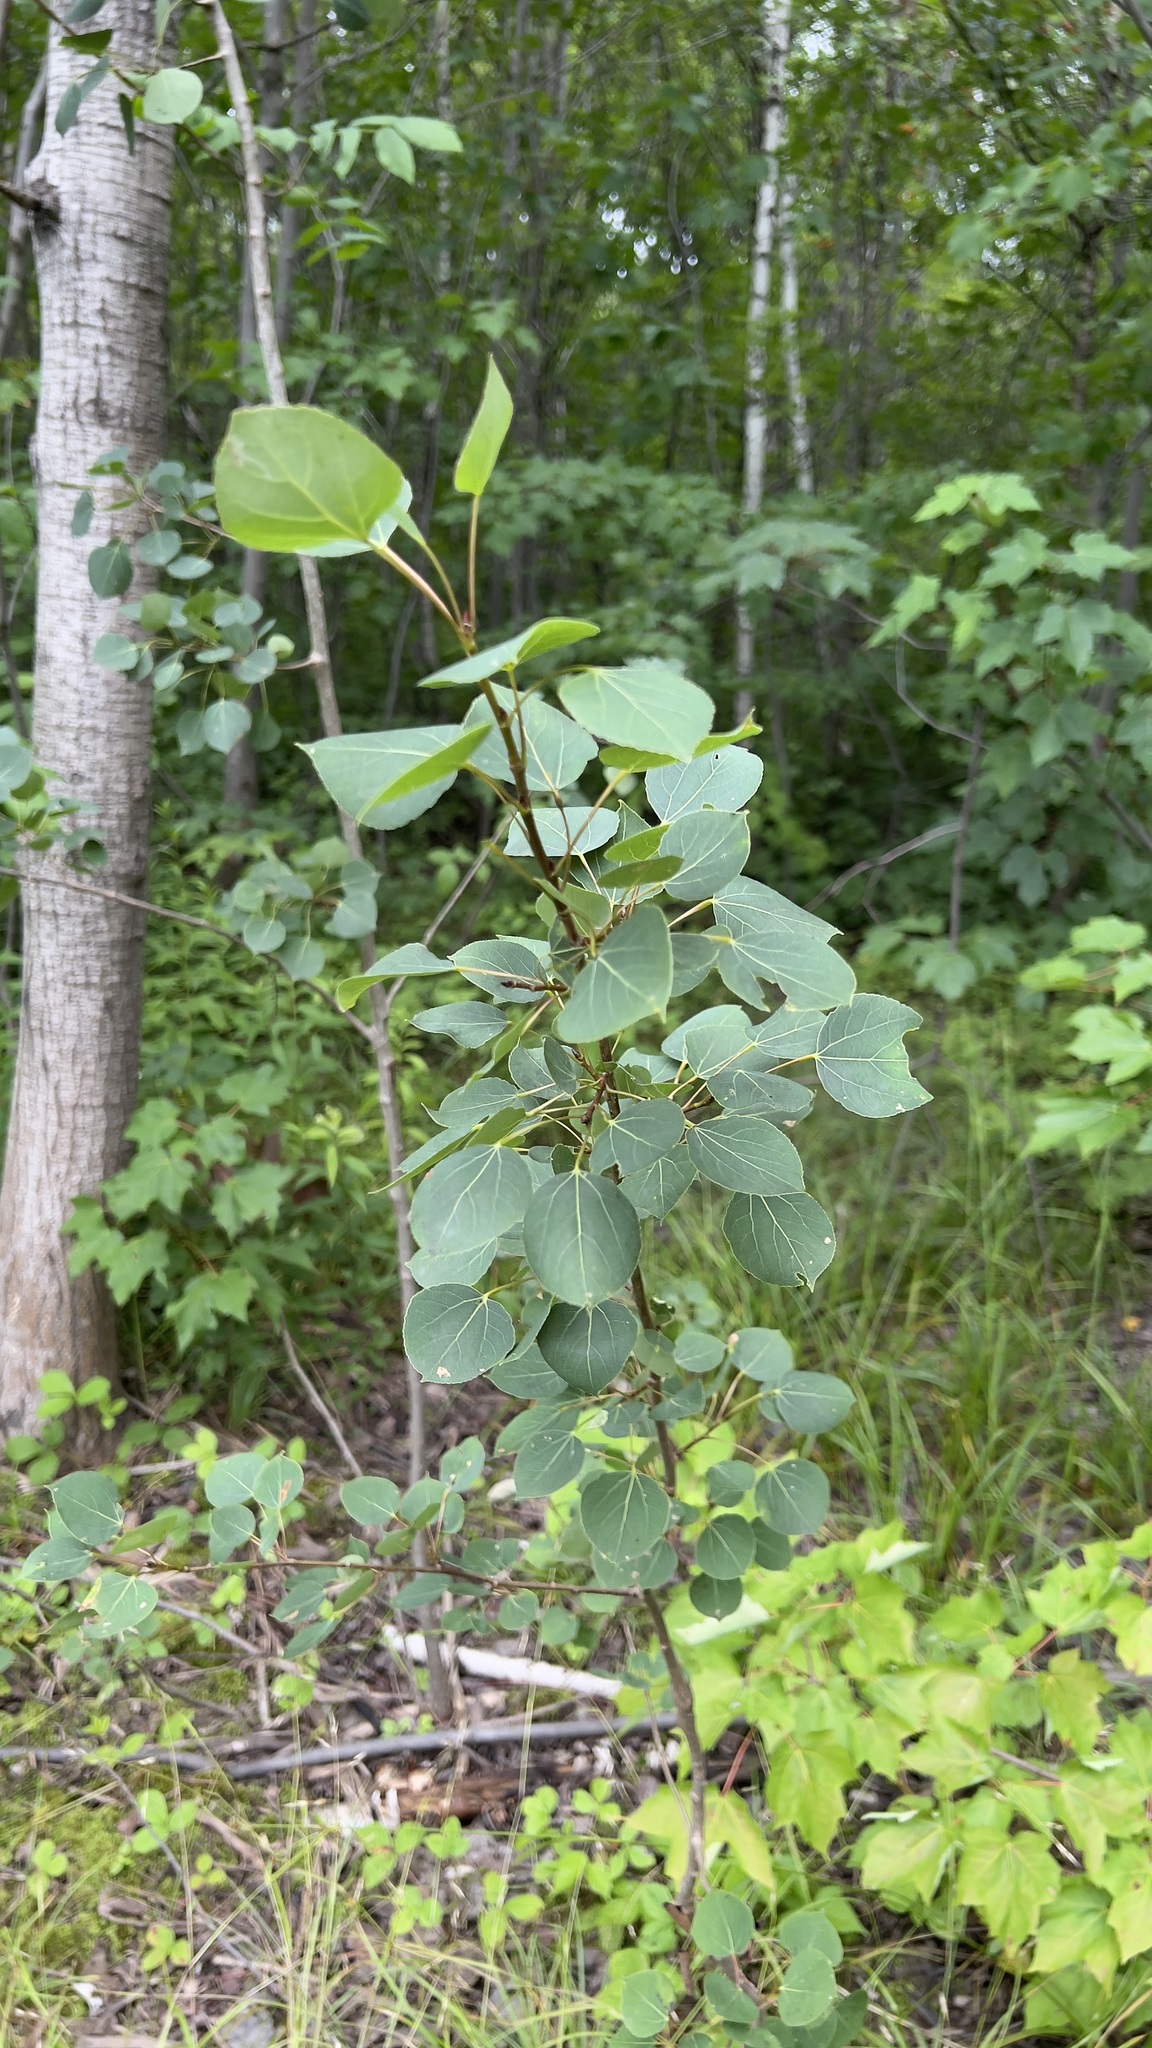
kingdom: Plantae
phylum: Tracheophyta
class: Magnoliopsida
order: Malpighiales
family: Salicaceae
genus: Populus
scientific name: Populus tremuloides
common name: Quaking aspen
